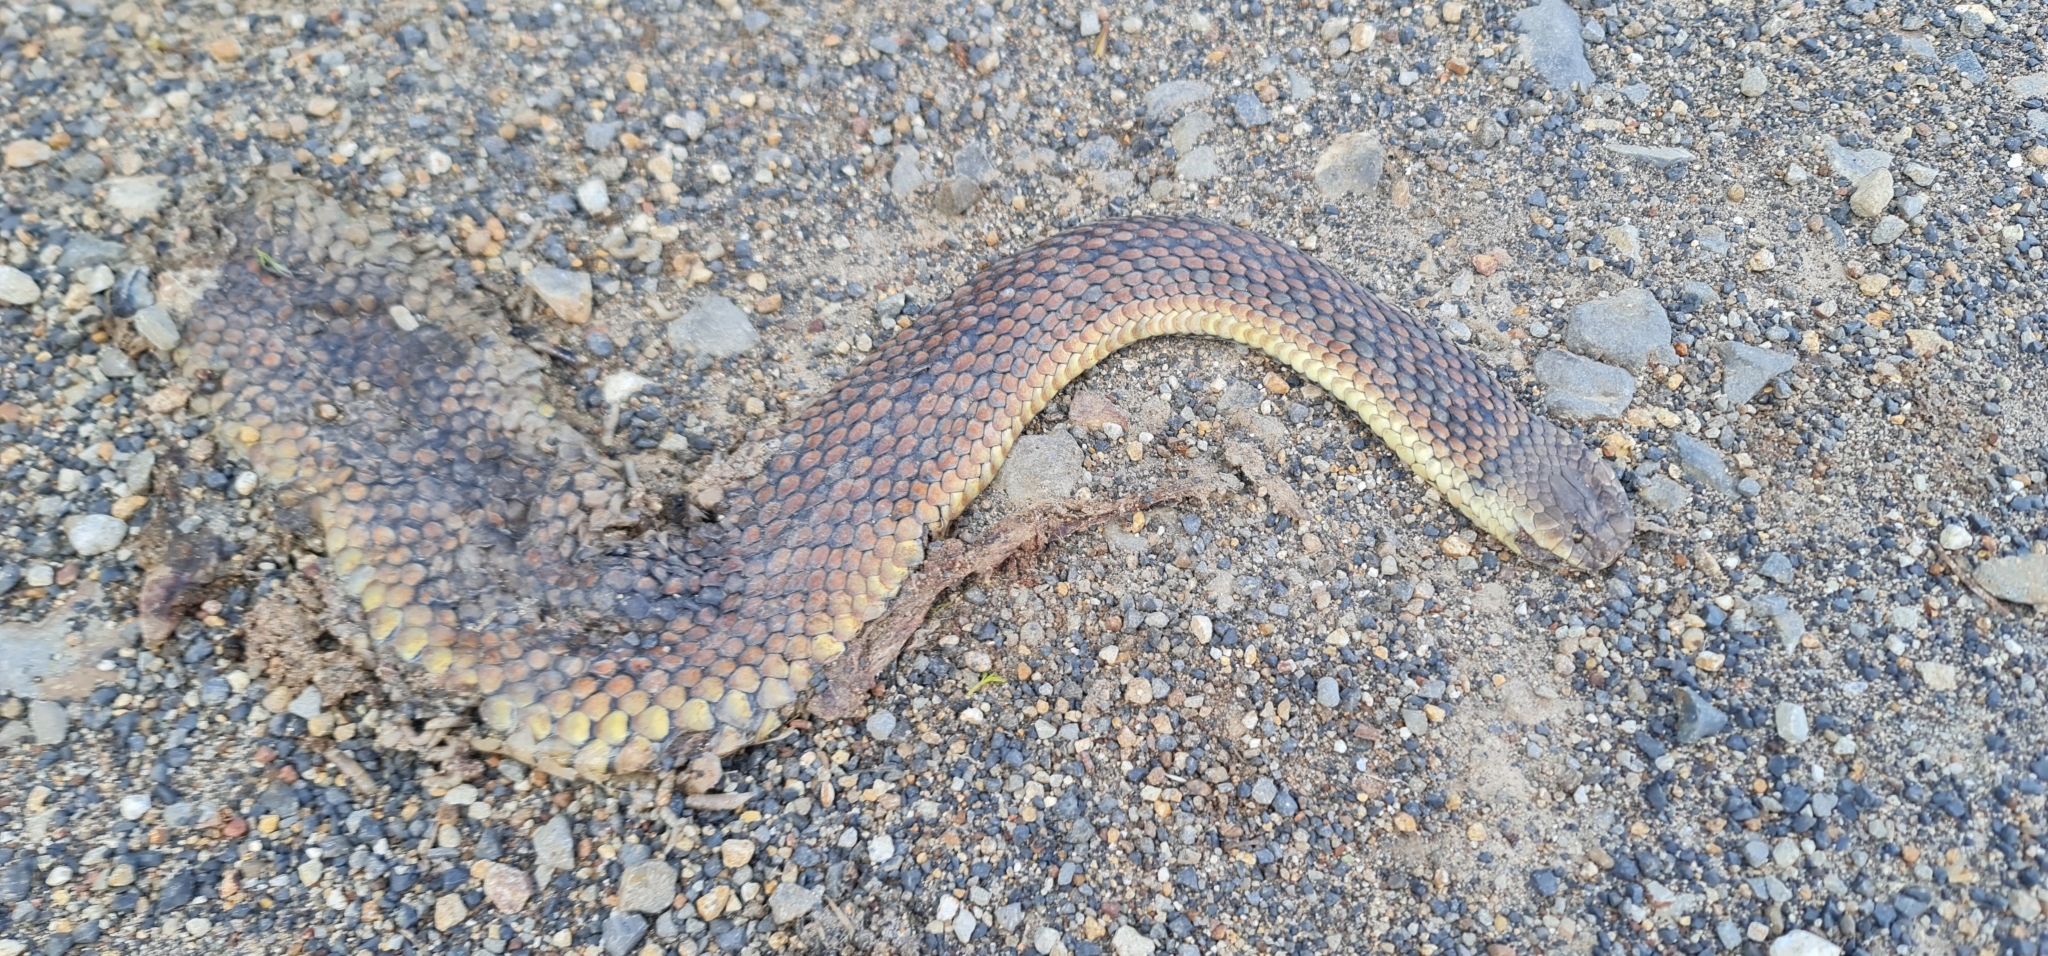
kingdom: Animalia
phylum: Chordata
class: Squamata
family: Elapidae
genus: Austrelaps
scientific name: Austrelaps ramsayi
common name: Highlands copperhead
